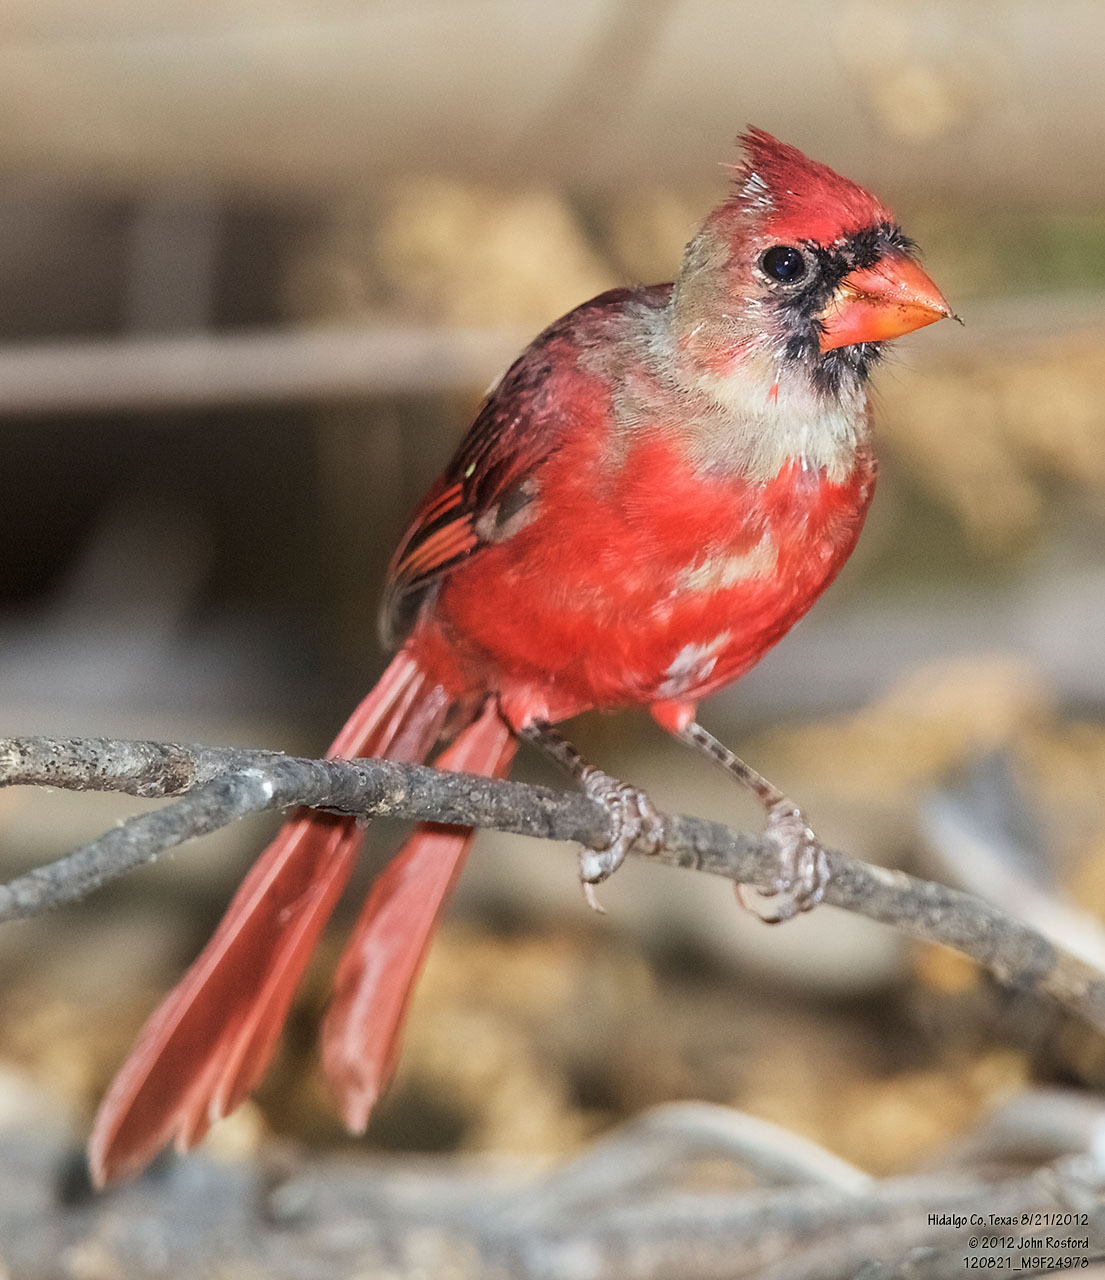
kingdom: Animalia
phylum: Chordata
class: Aves
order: Passeriformes
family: Cardinalidae
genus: Cardinalis
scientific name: Cardinalis cardinalis
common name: Northern cardinal
